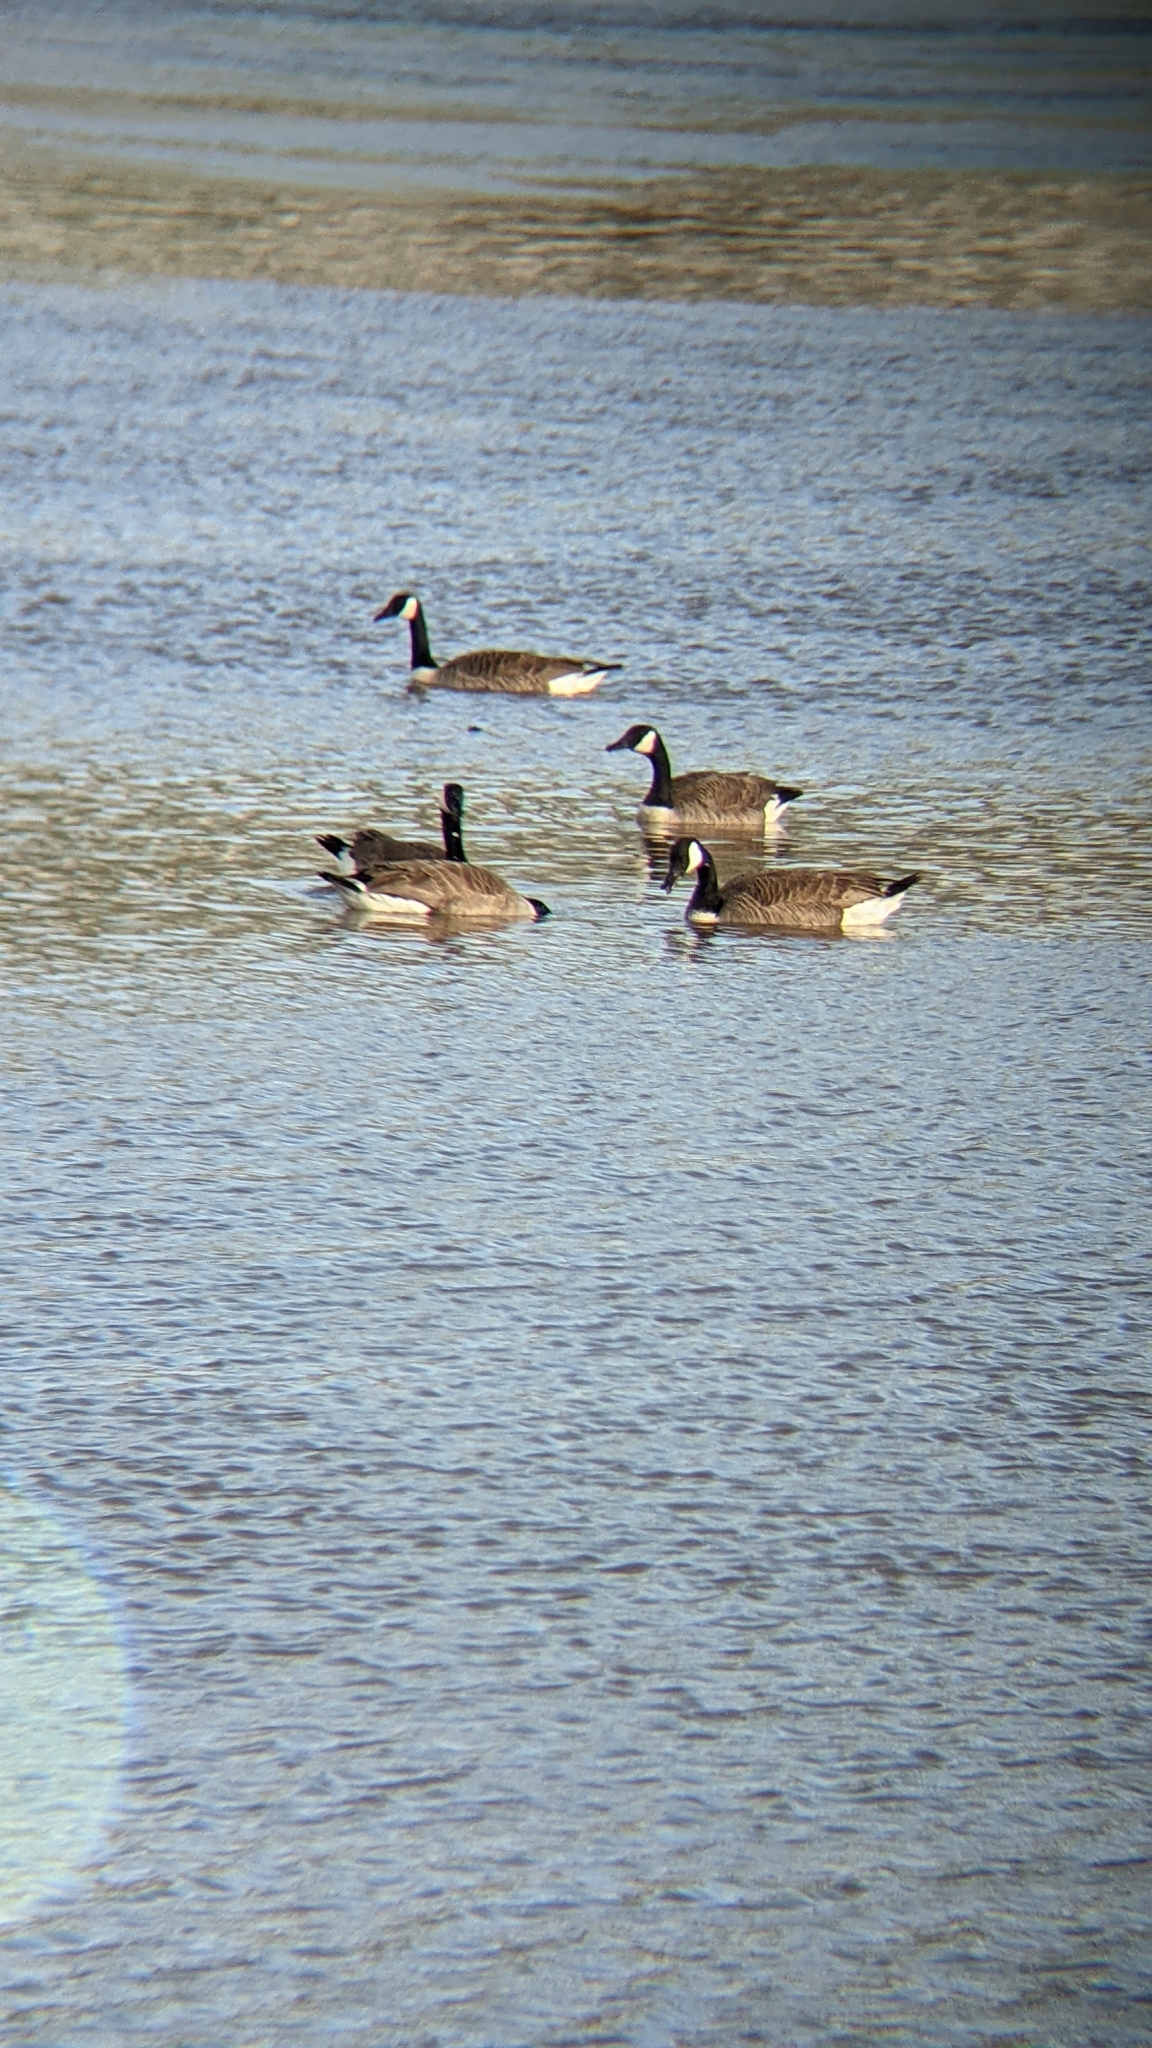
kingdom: Animalia
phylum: Chordata
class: Aves
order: Anseriformes
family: Anatidae
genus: Branta
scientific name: Branta canadensis
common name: Canada goose
